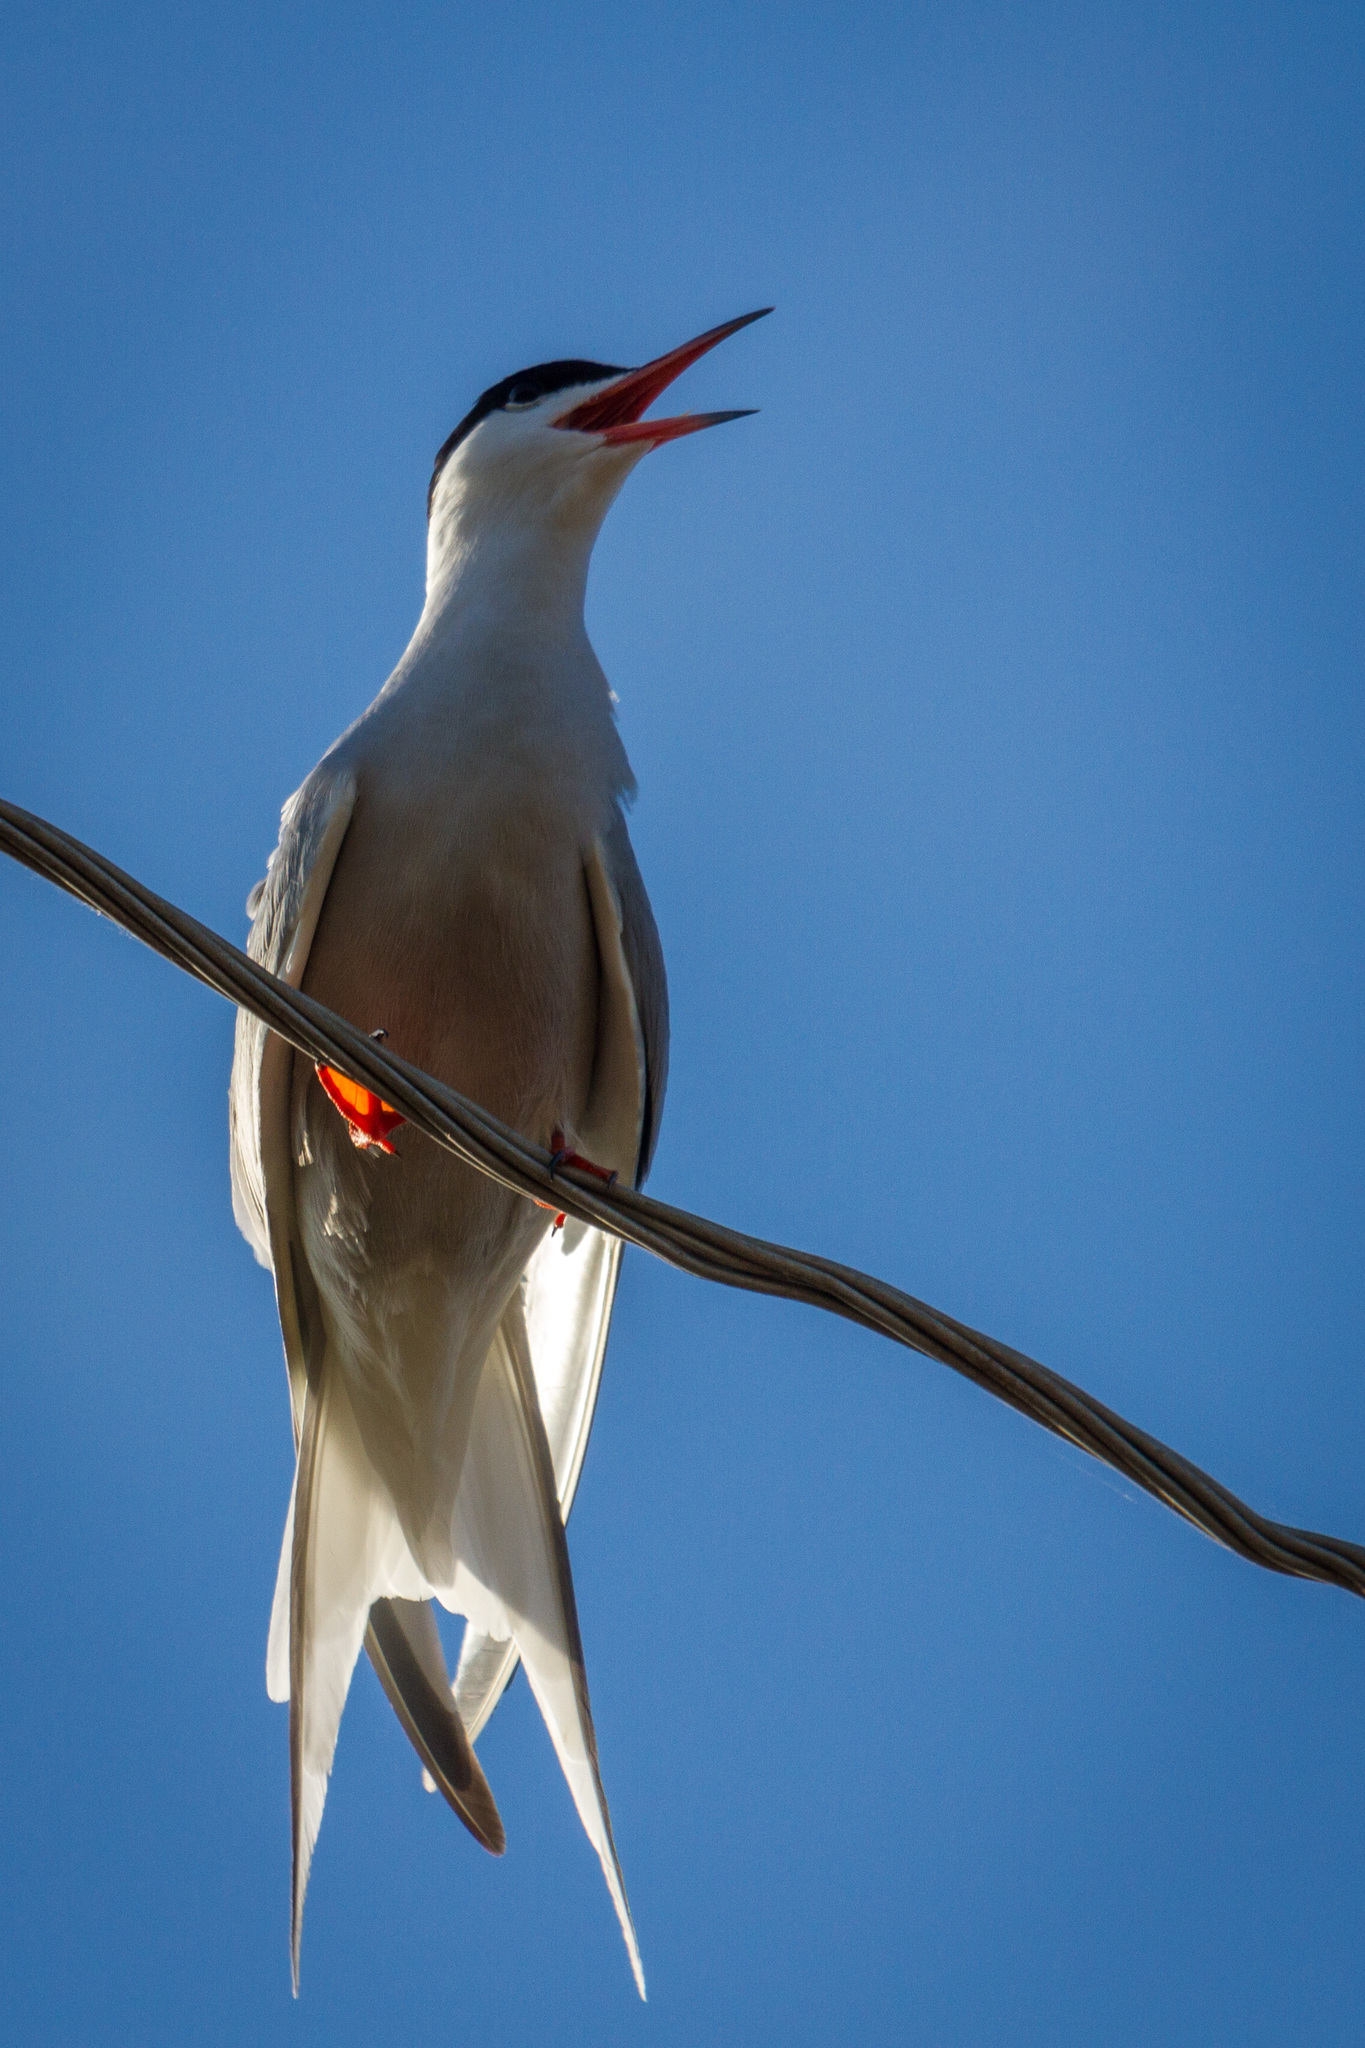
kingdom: Animalia
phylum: Chordata
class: Aves
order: Charadriiformes
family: Laridae
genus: Sterna
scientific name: Sterna hirundo
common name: Common tern
